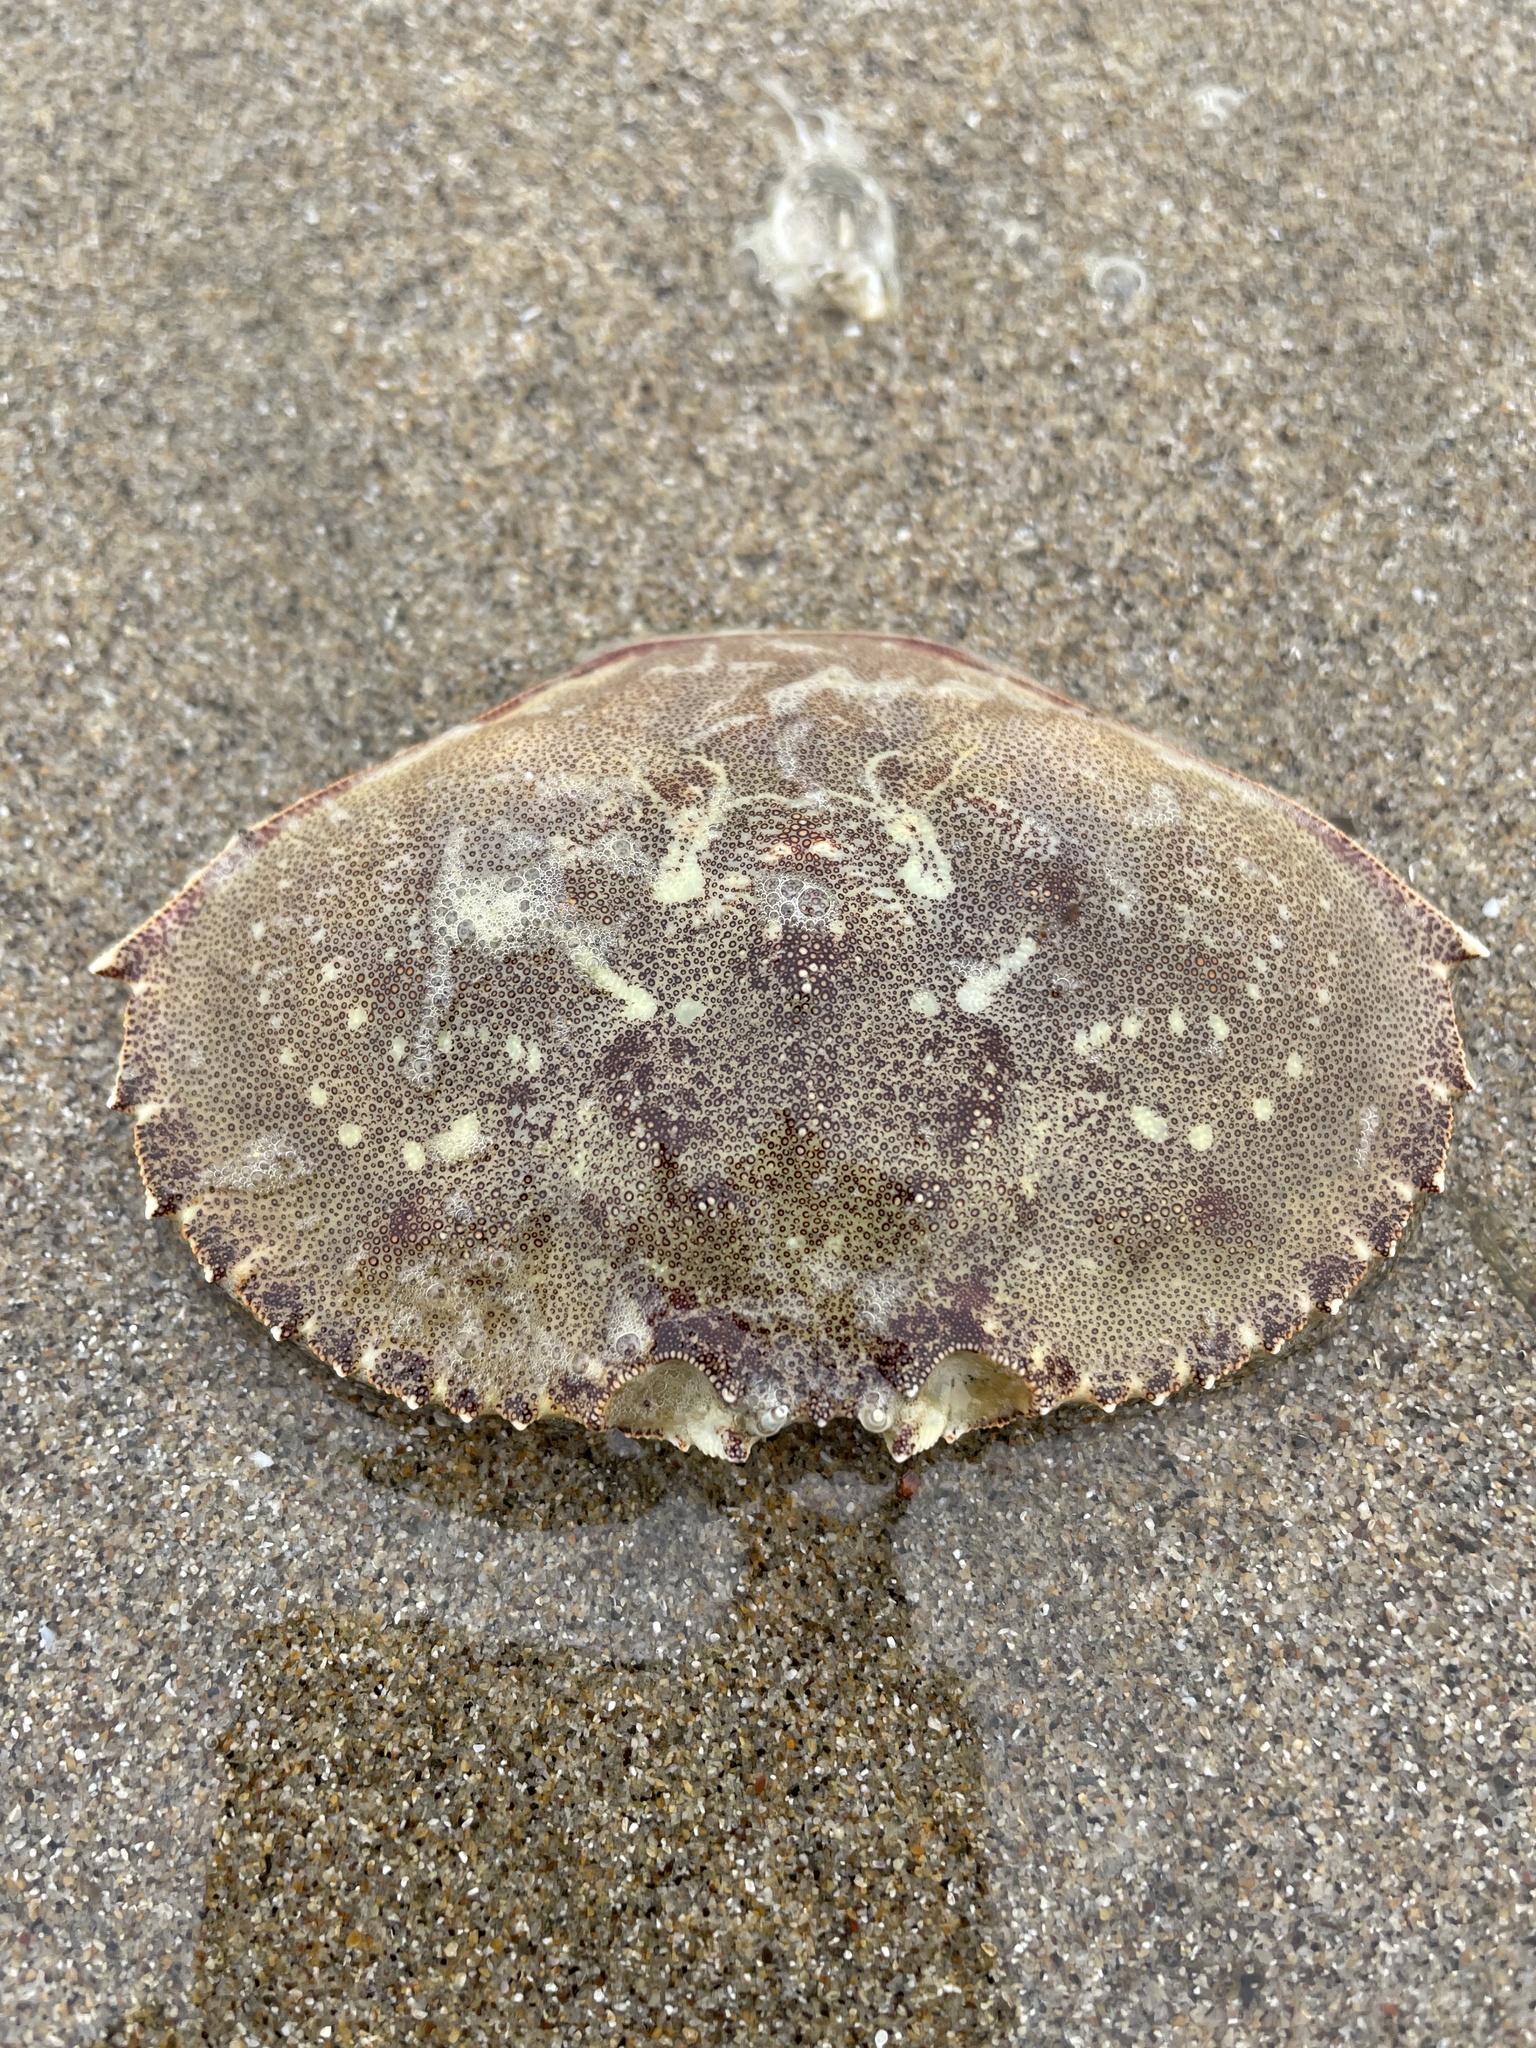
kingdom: Animalia
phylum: Arthropoda
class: Malacostraca
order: Decapoda
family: Cancridae
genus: Metacarcinus
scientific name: Metacarcinus magister
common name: Californian crab
